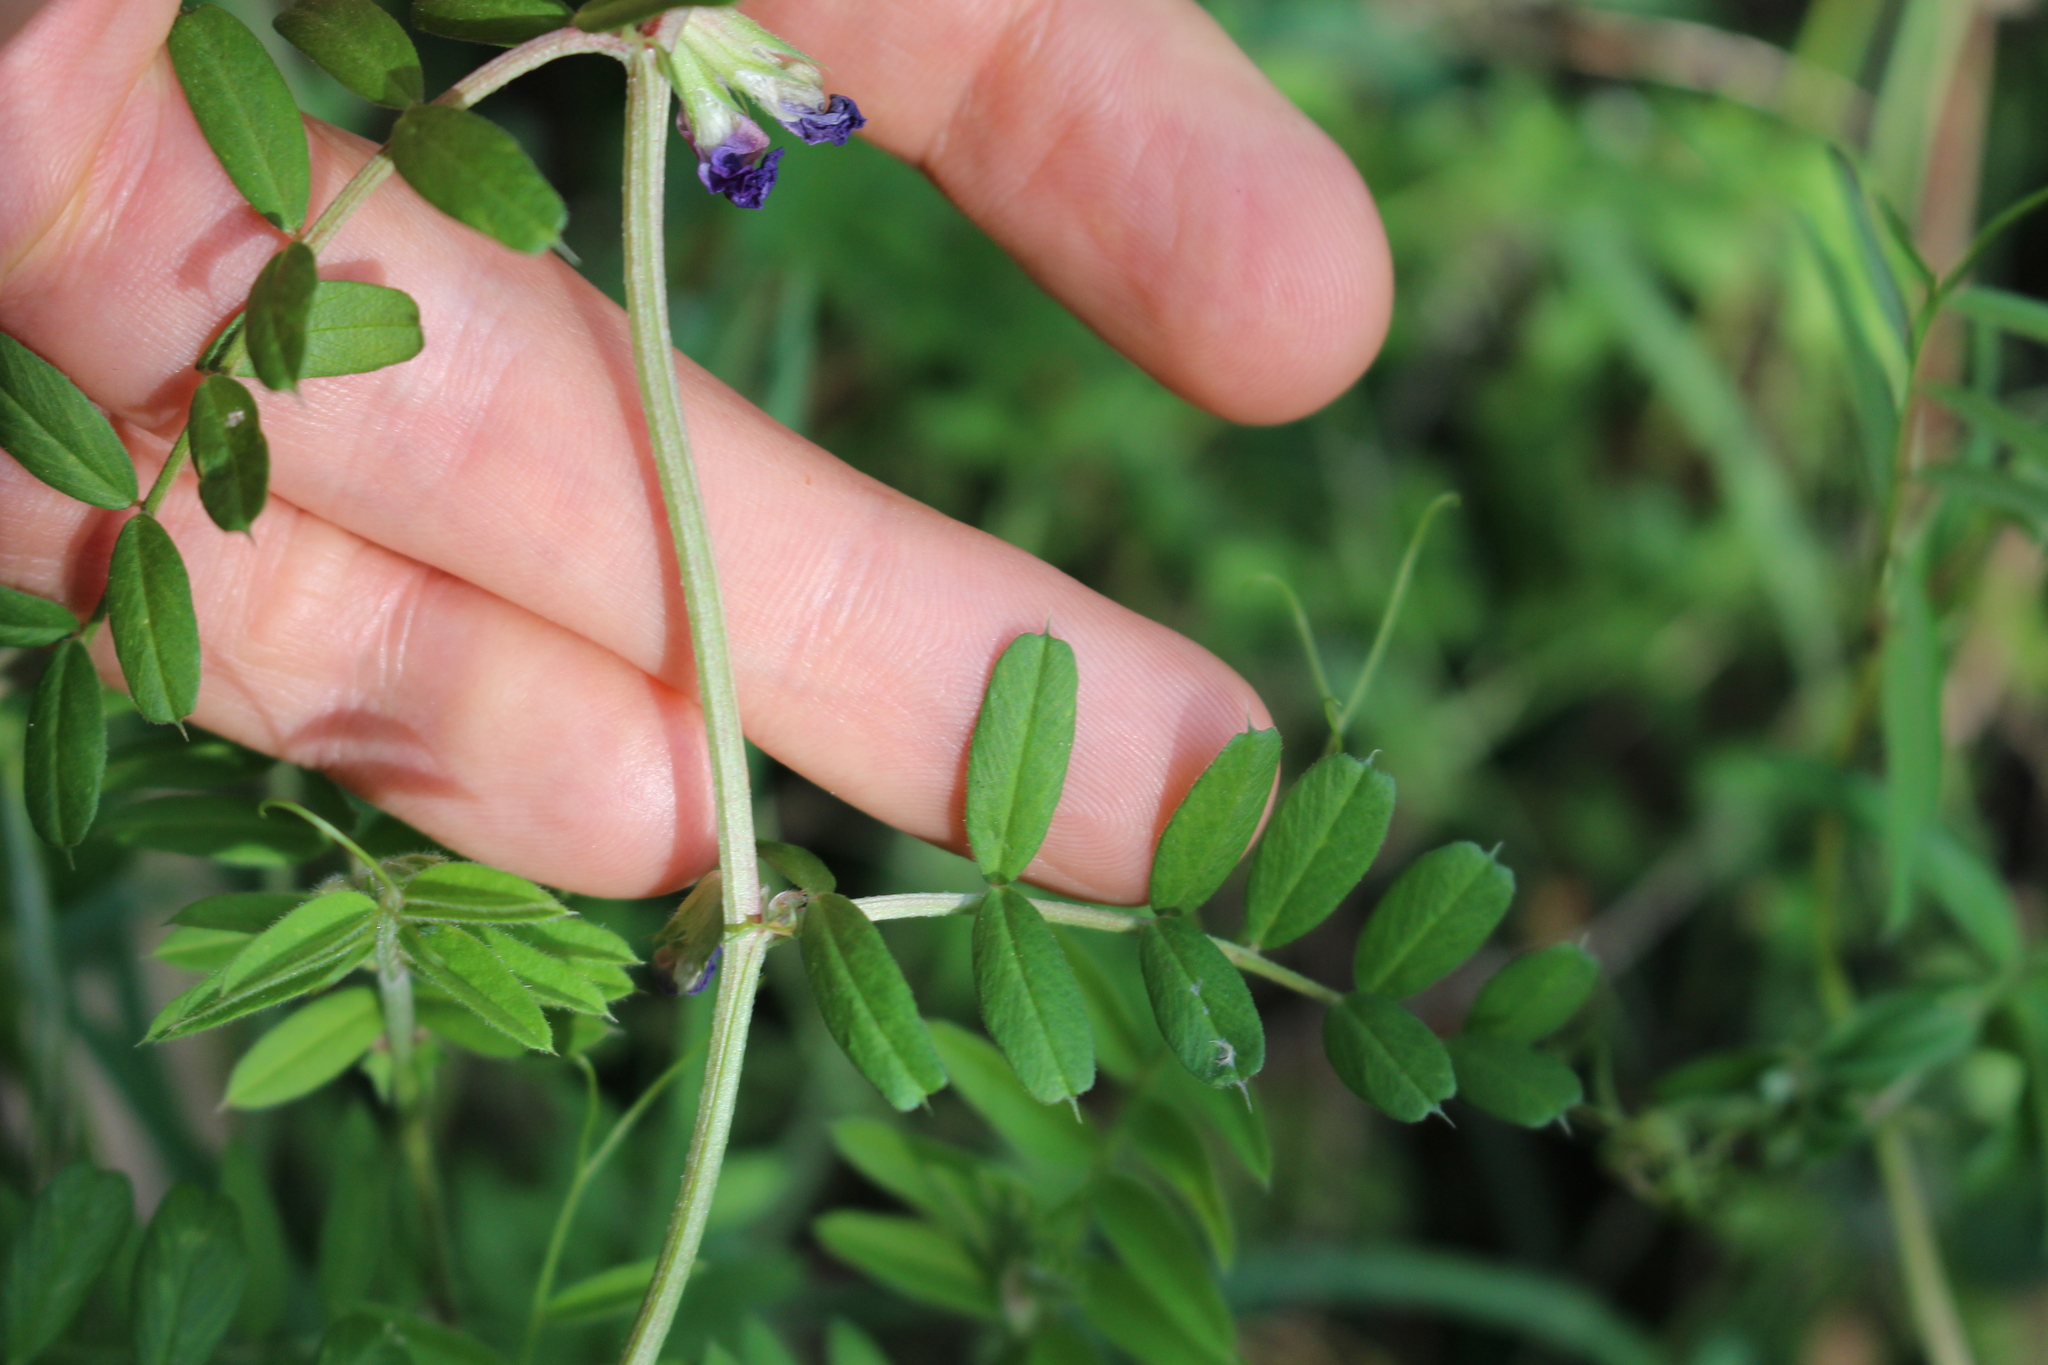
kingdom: Plantae
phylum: Tracheophyta
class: Magnoliopsida
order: Fabales
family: Fabaceae
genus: Vicia
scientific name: Vicia sativa
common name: Garden vetch
